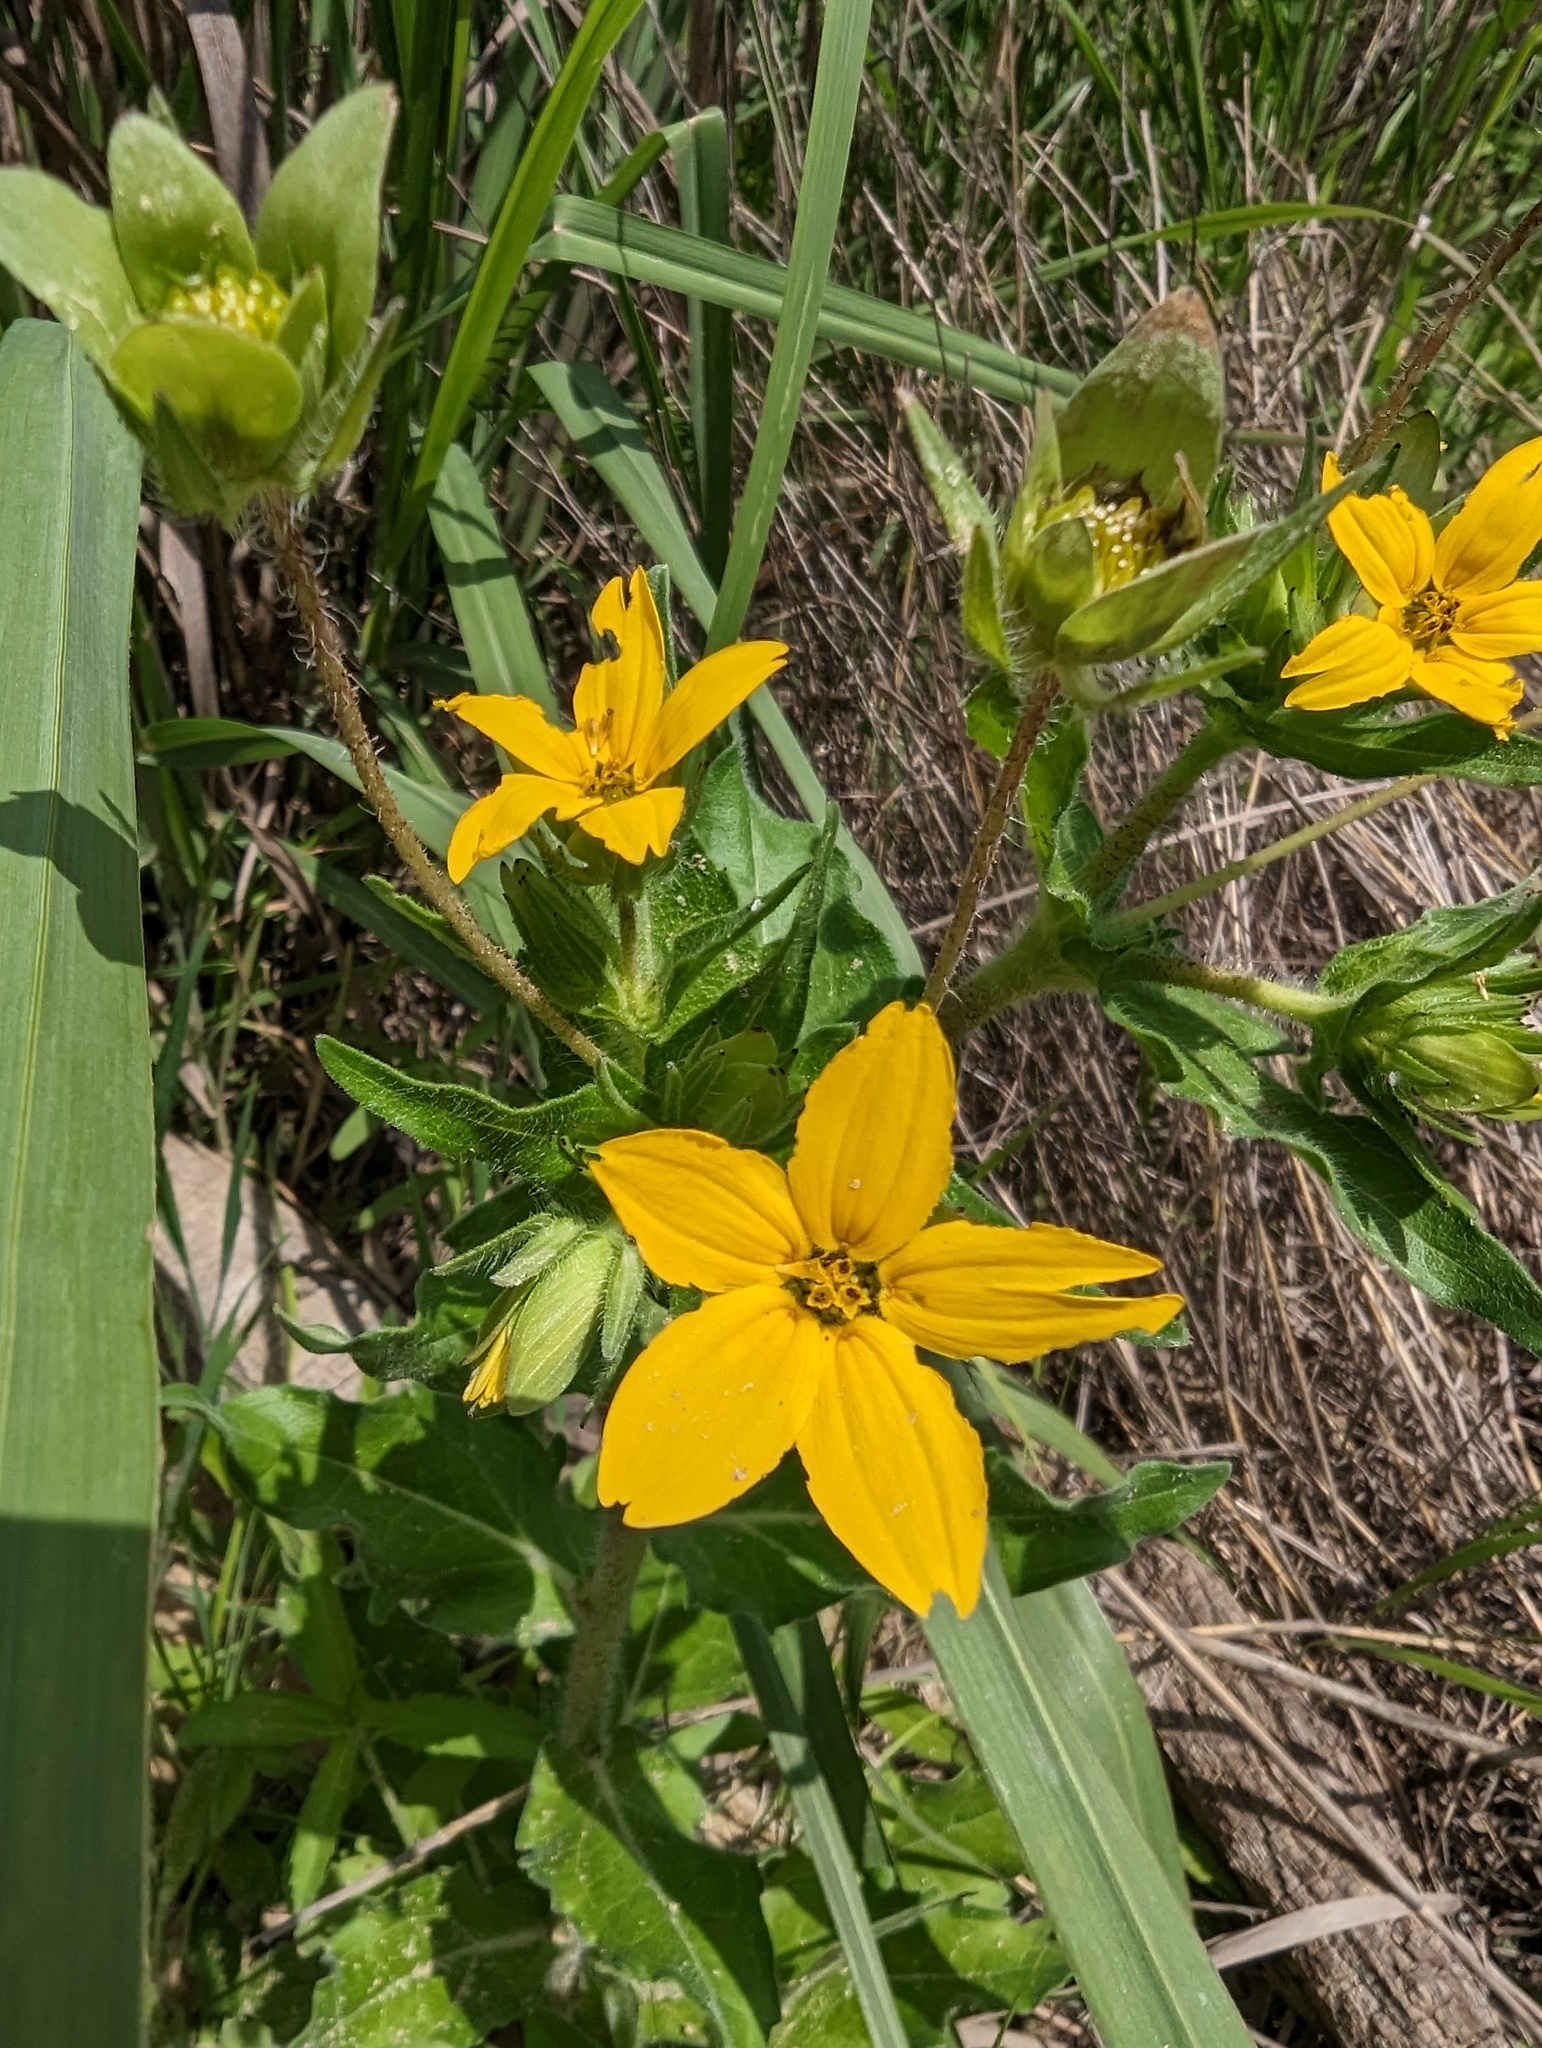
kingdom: Plantae
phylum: Tracheophyta
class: Magnoliopsida
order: Asterales
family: Asteraceae
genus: Lindheimera
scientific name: Lindheimera texana
